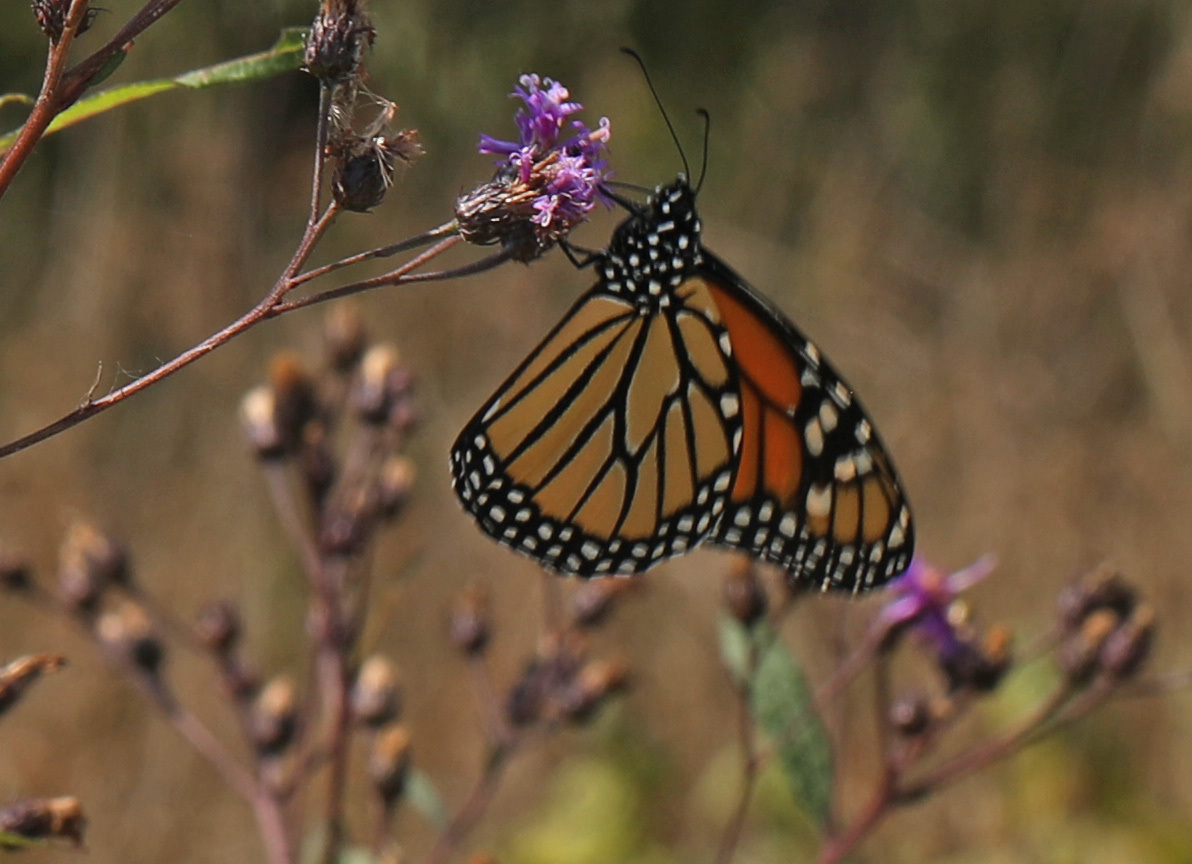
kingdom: Animalia
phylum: Arthropoda
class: Insecta
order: Lepidoptera
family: Nymphalidae
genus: Danaus
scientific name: Danaus plexippus
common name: Monarch
